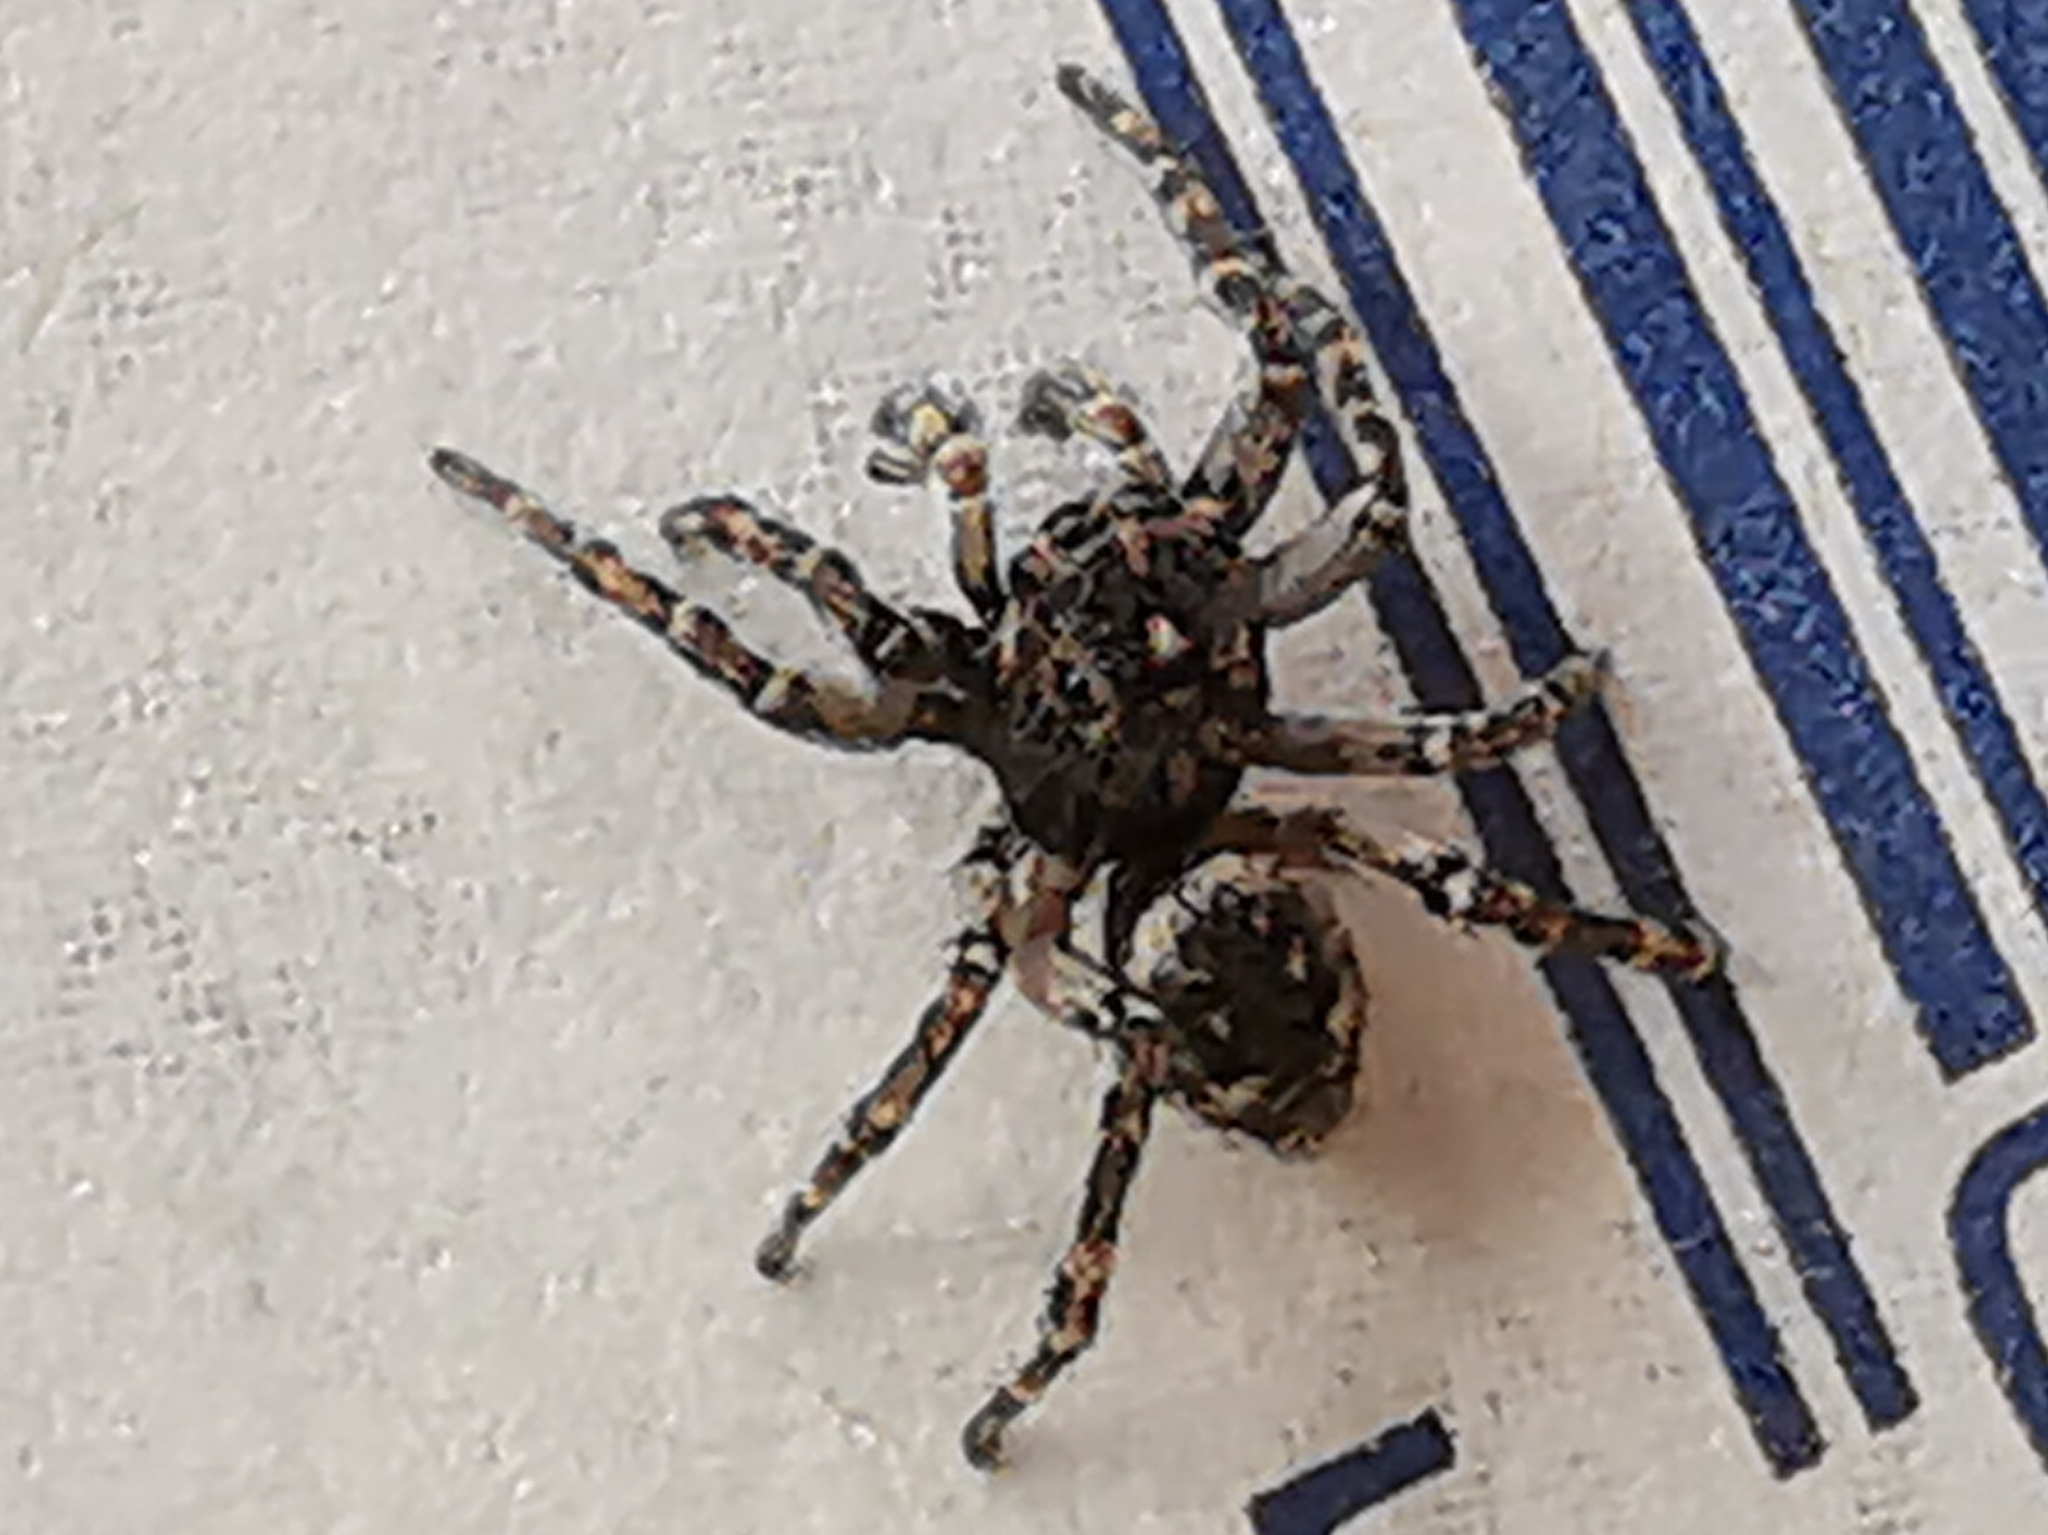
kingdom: Animalia
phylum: Arthropoda
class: Arachnida
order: Araneae
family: Salticidae
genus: Attulus
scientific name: Attulus pubescens
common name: Jumping spider
